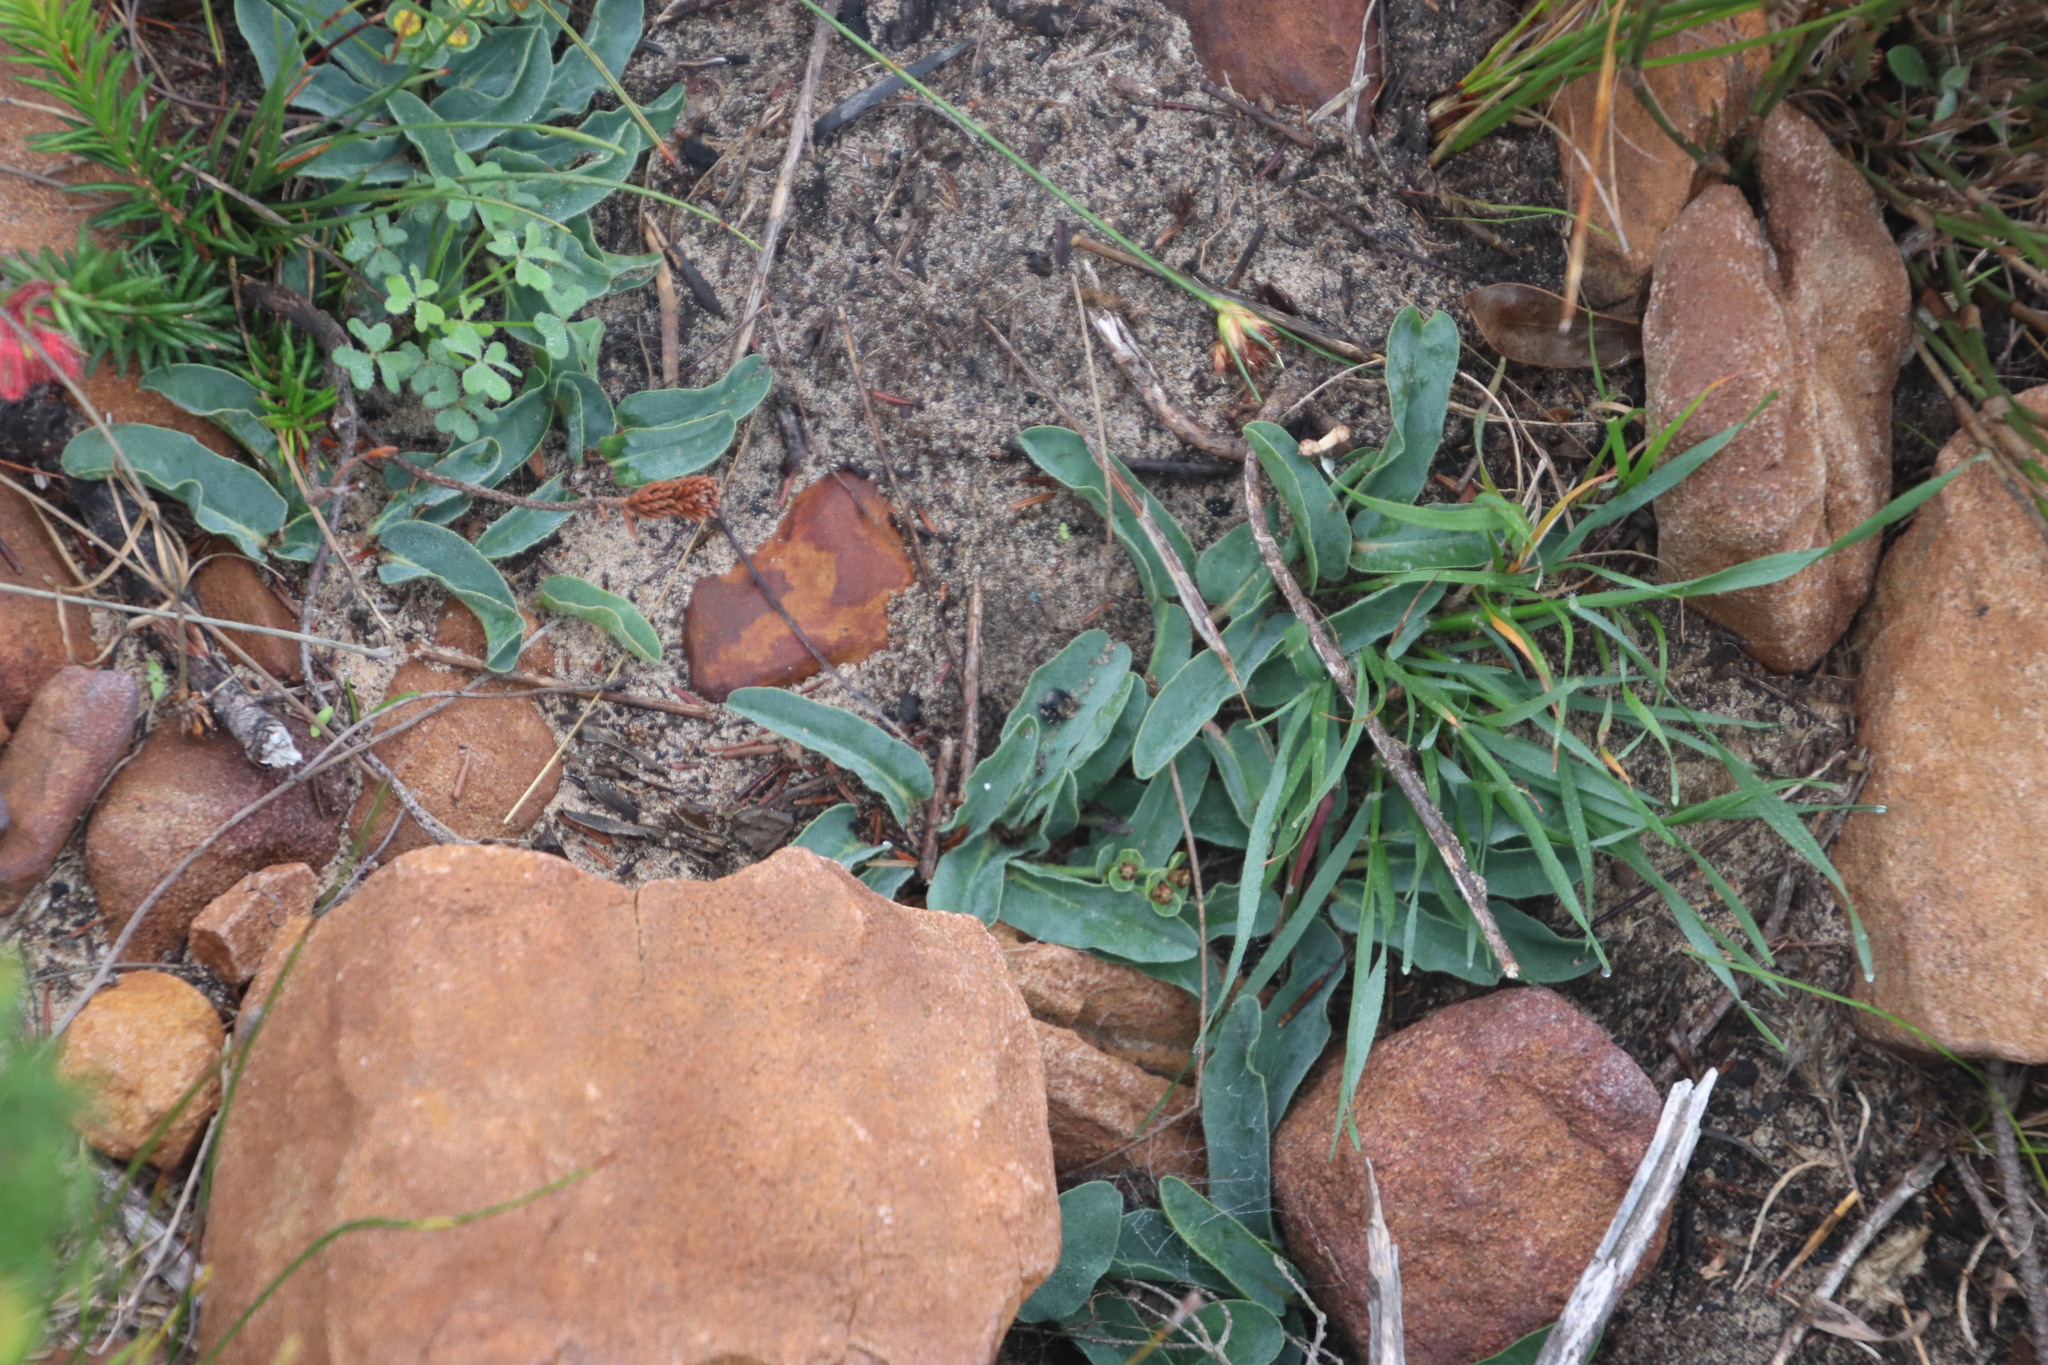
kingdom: Plantae
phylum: Tracheophyta
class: Magnoliopsida
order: Malpighiales
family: Euphorbiaceae
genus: Euphorbia
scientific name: Euphorbia tuberosa
